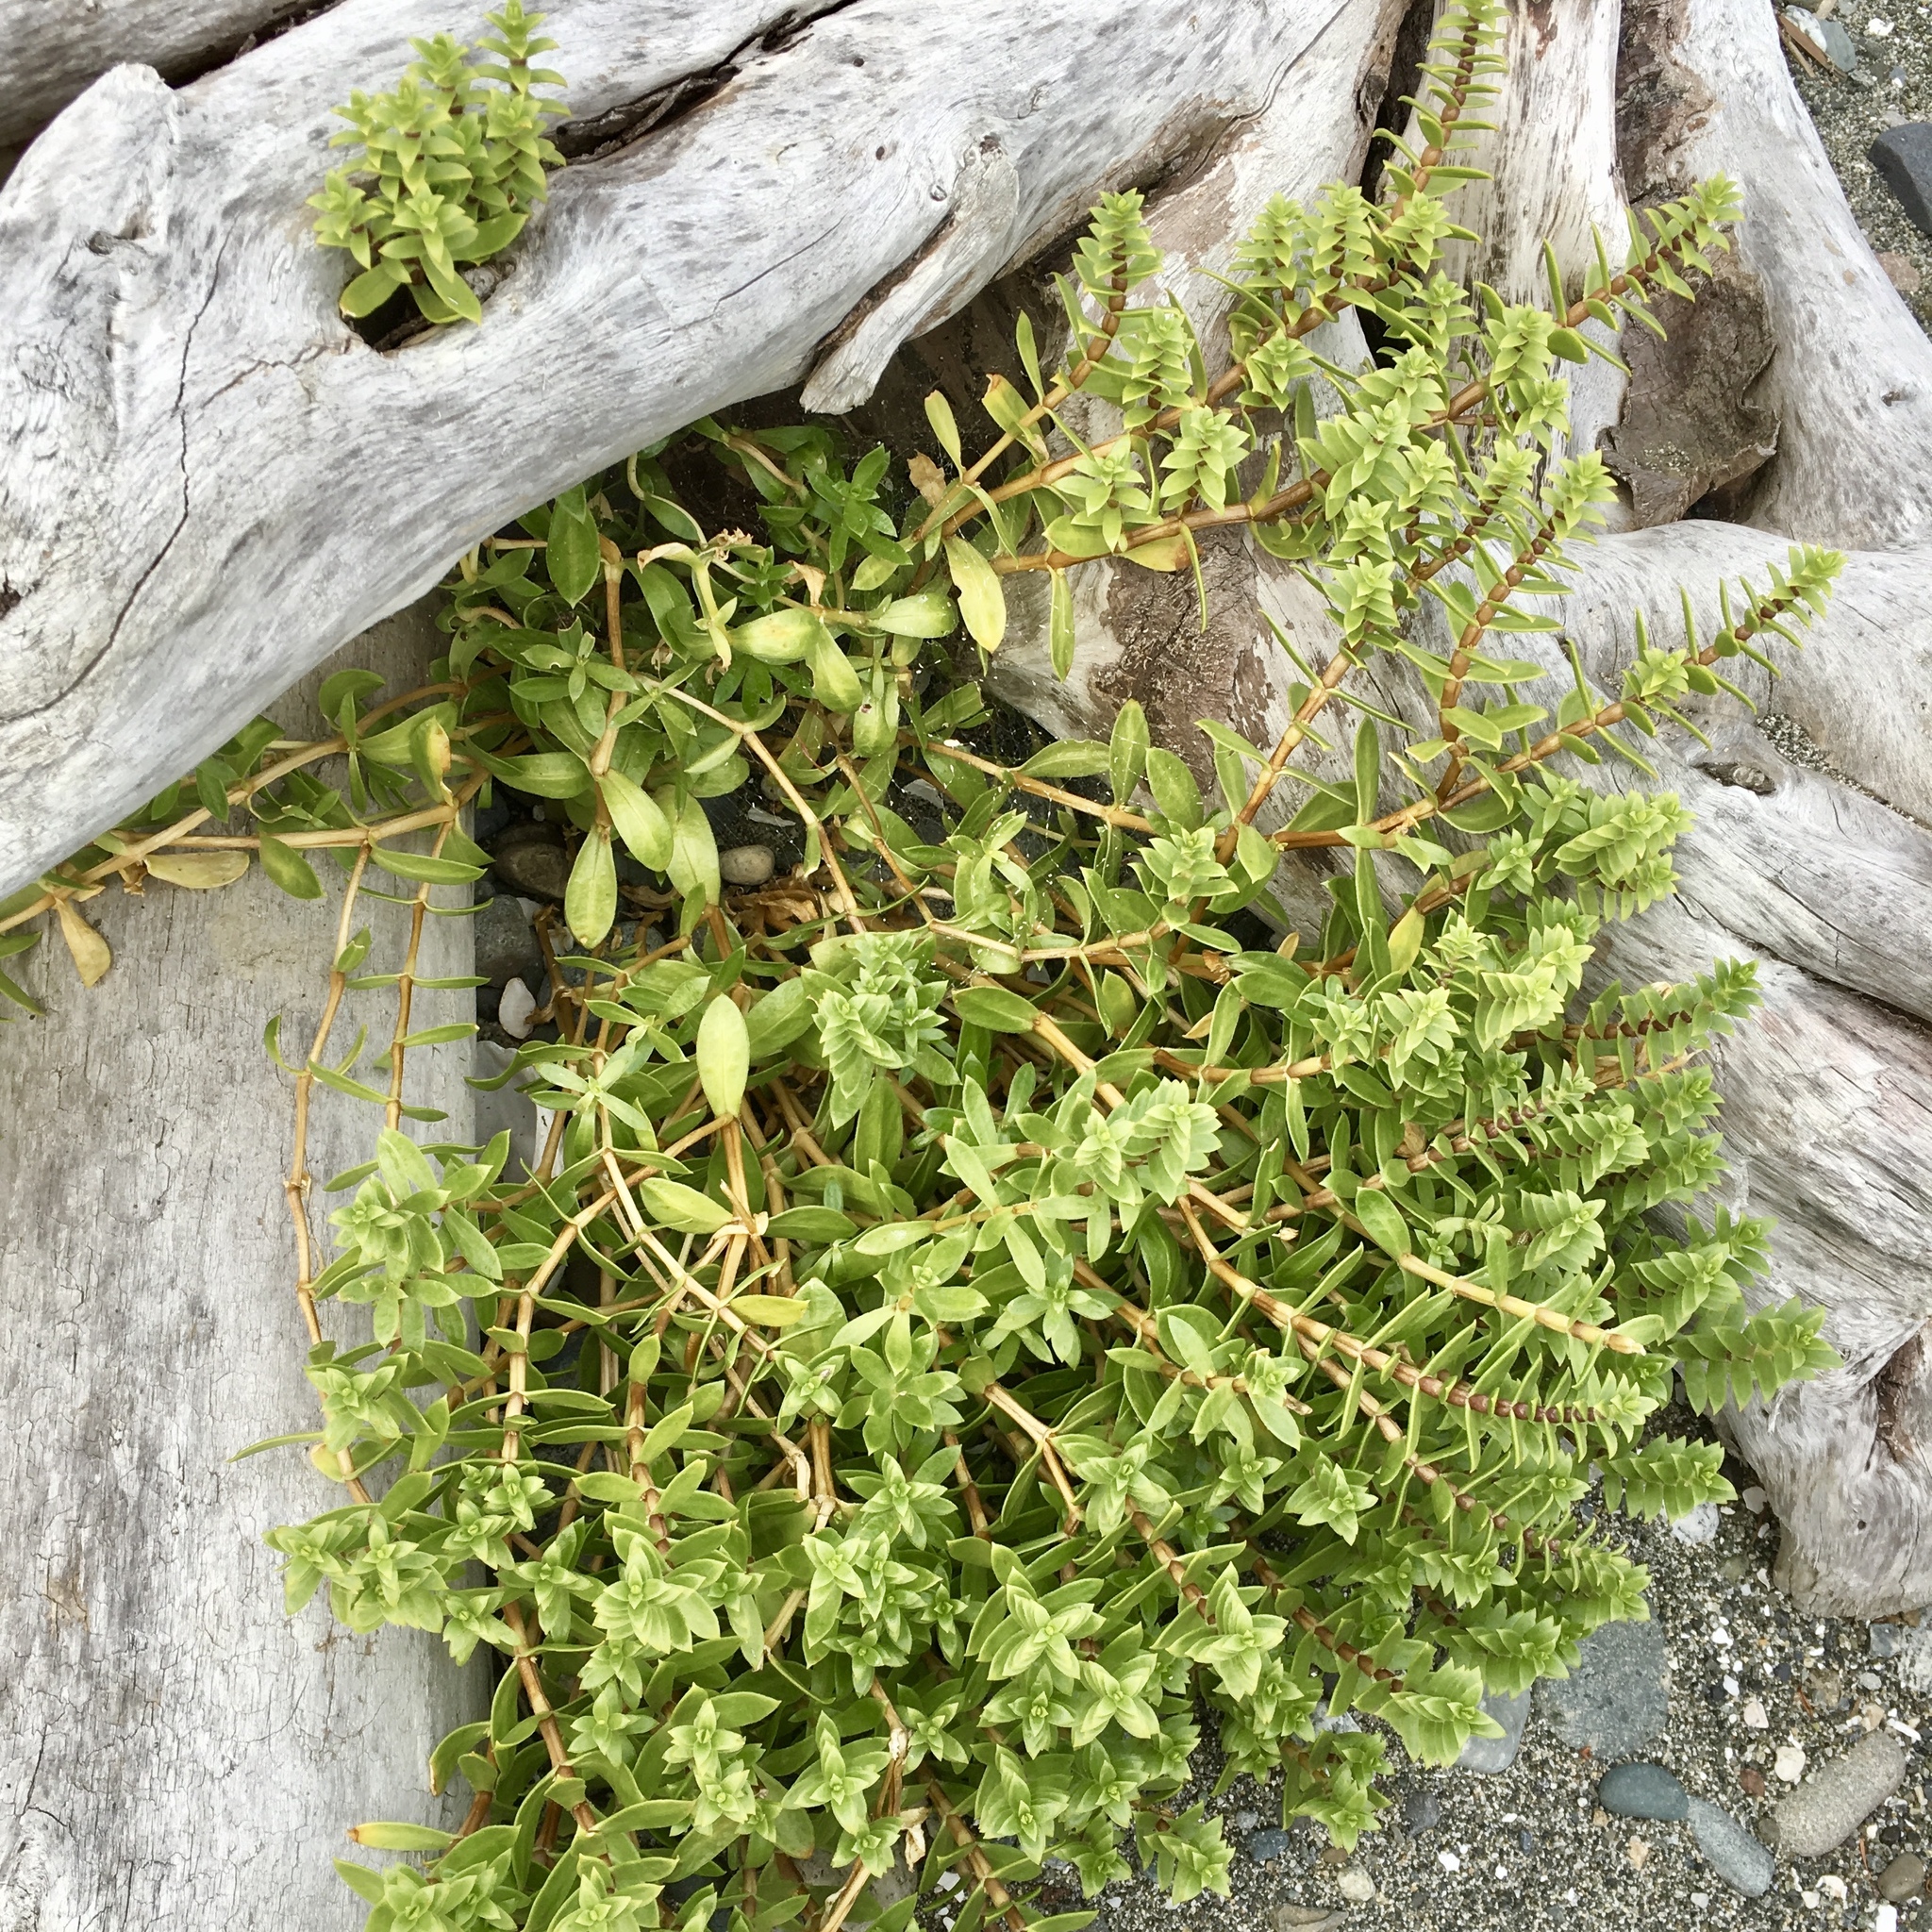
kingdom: Plantae
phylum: Tracheophyta
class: Magnoliopsida
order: Caryophyllales
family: Caryophyllaceae
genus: Honckenya
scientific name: Honckenya peploides
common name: Sea sandwort
